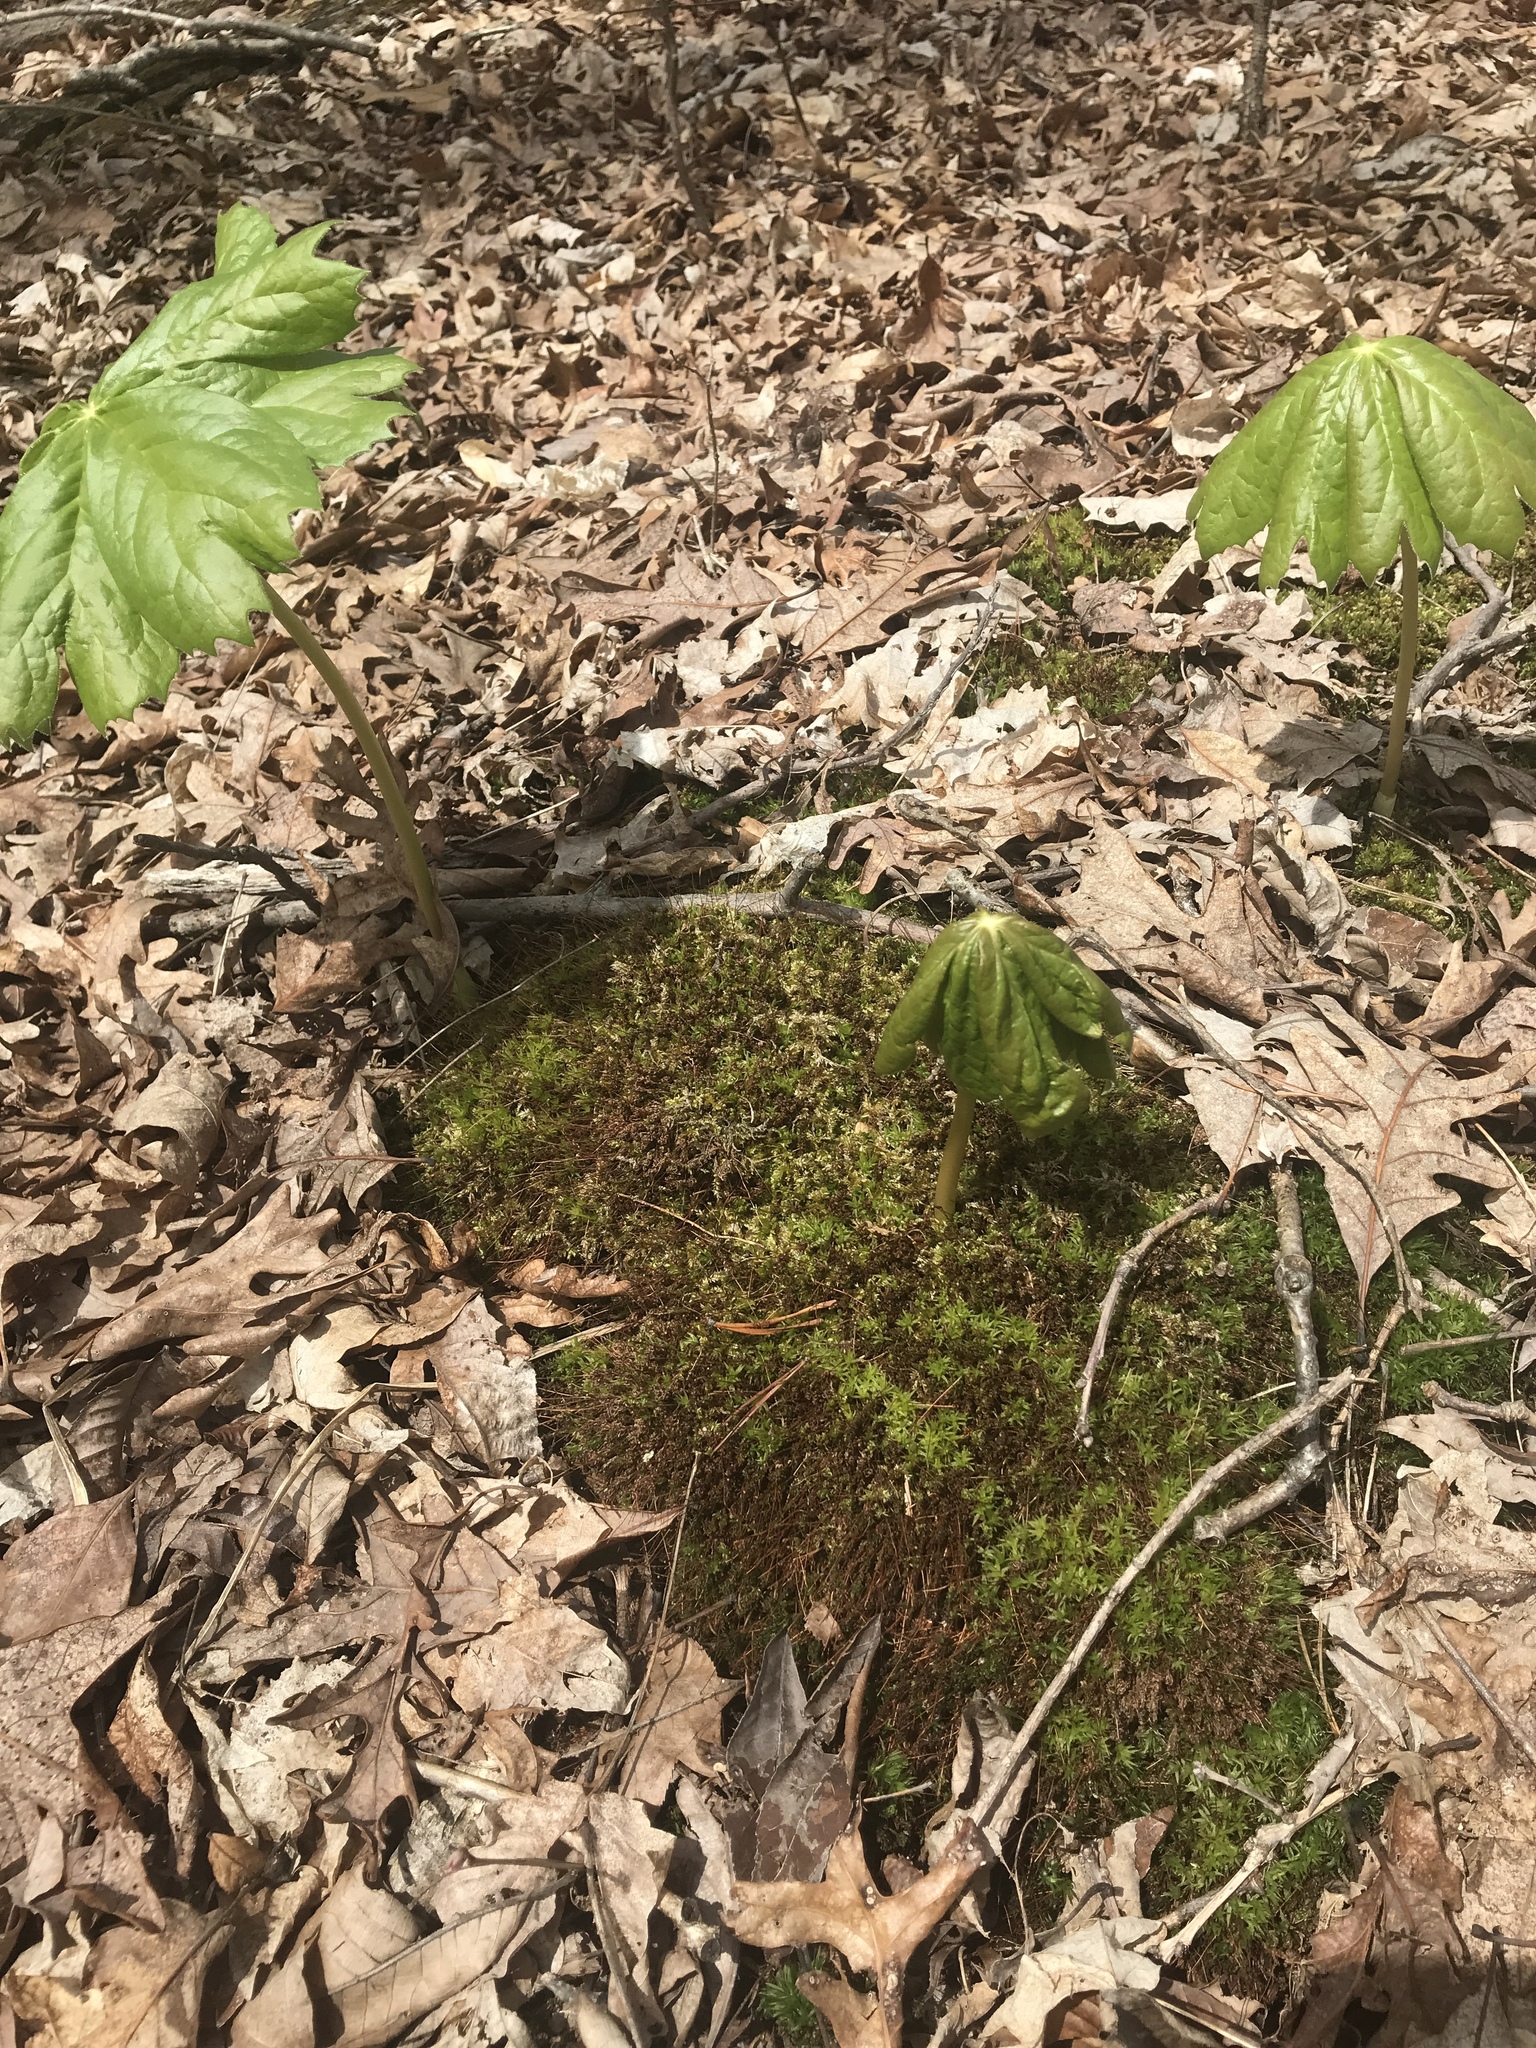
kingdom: Plantae
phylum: Tracheophyta
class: Magnoliopsida
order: Ranunculales
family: Berberidaceae
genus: Podophyllum
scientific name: Podophyllum peltatum
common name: Wild mandrake
